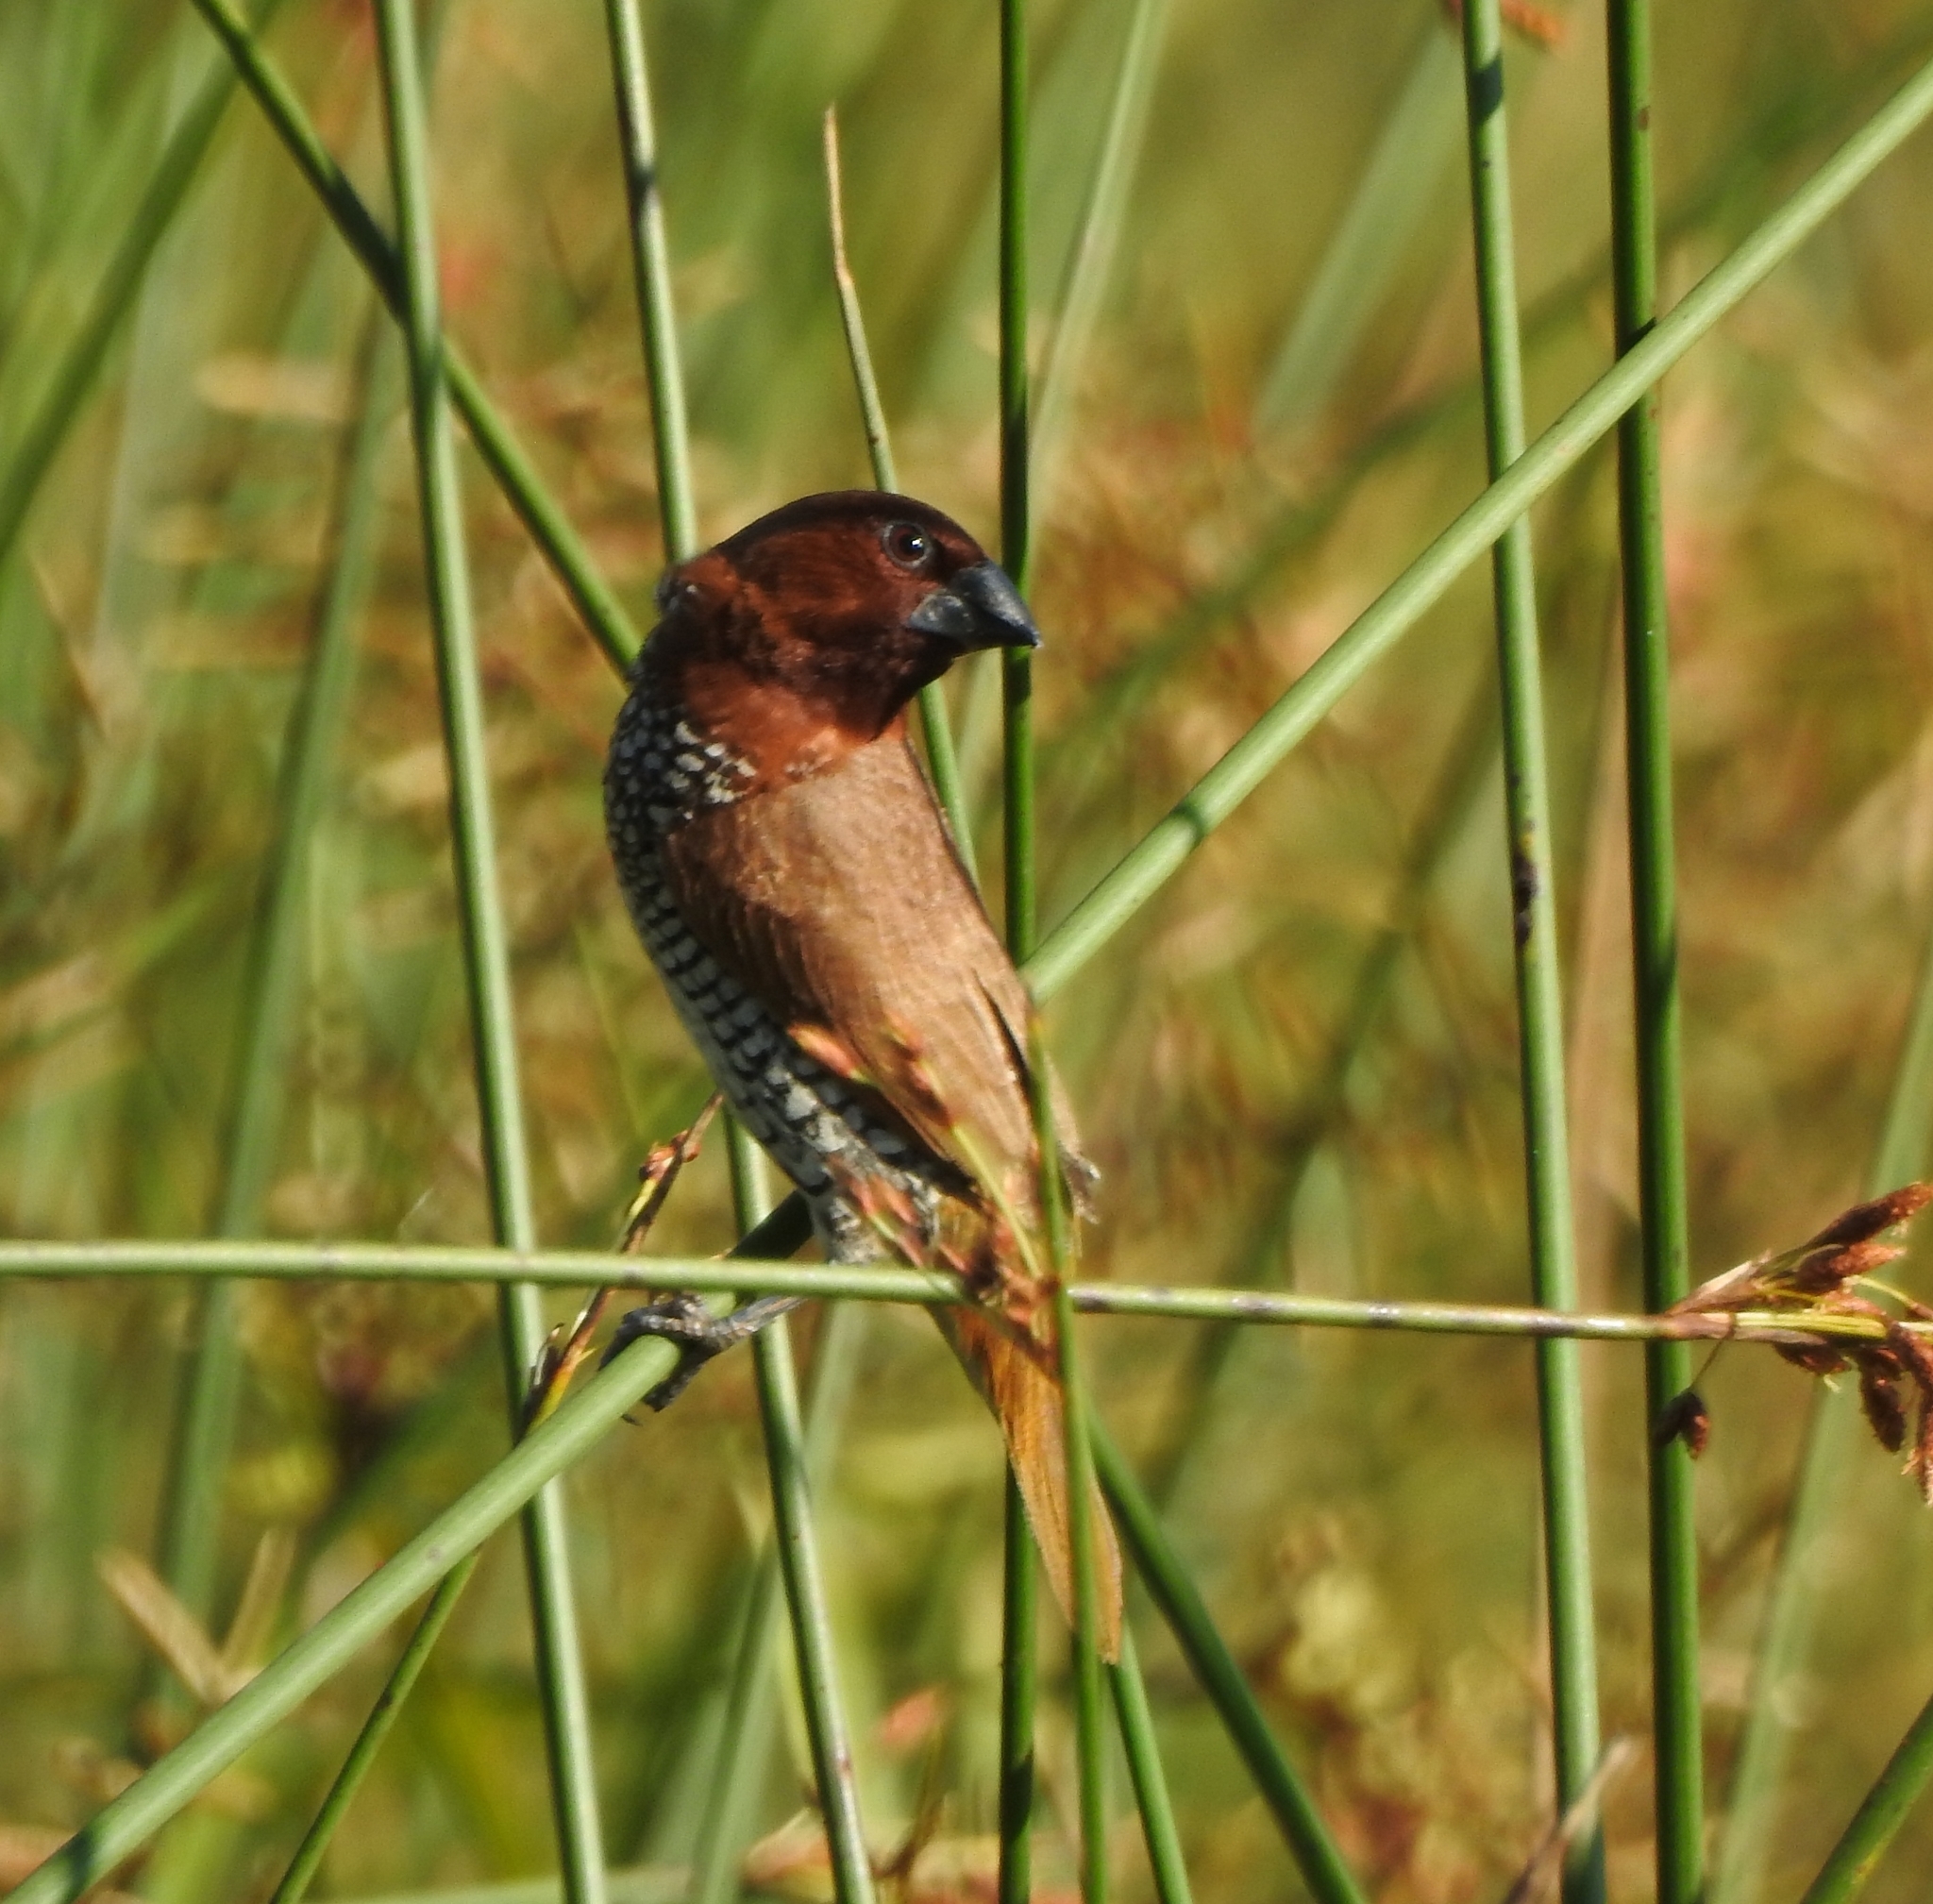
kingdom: Animalia
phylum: Chordata
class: Aves
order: Passeriformes
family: Estrildidae
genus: Lonchura
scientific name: Lonchura punctulata
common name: Scaly-breasted munia
